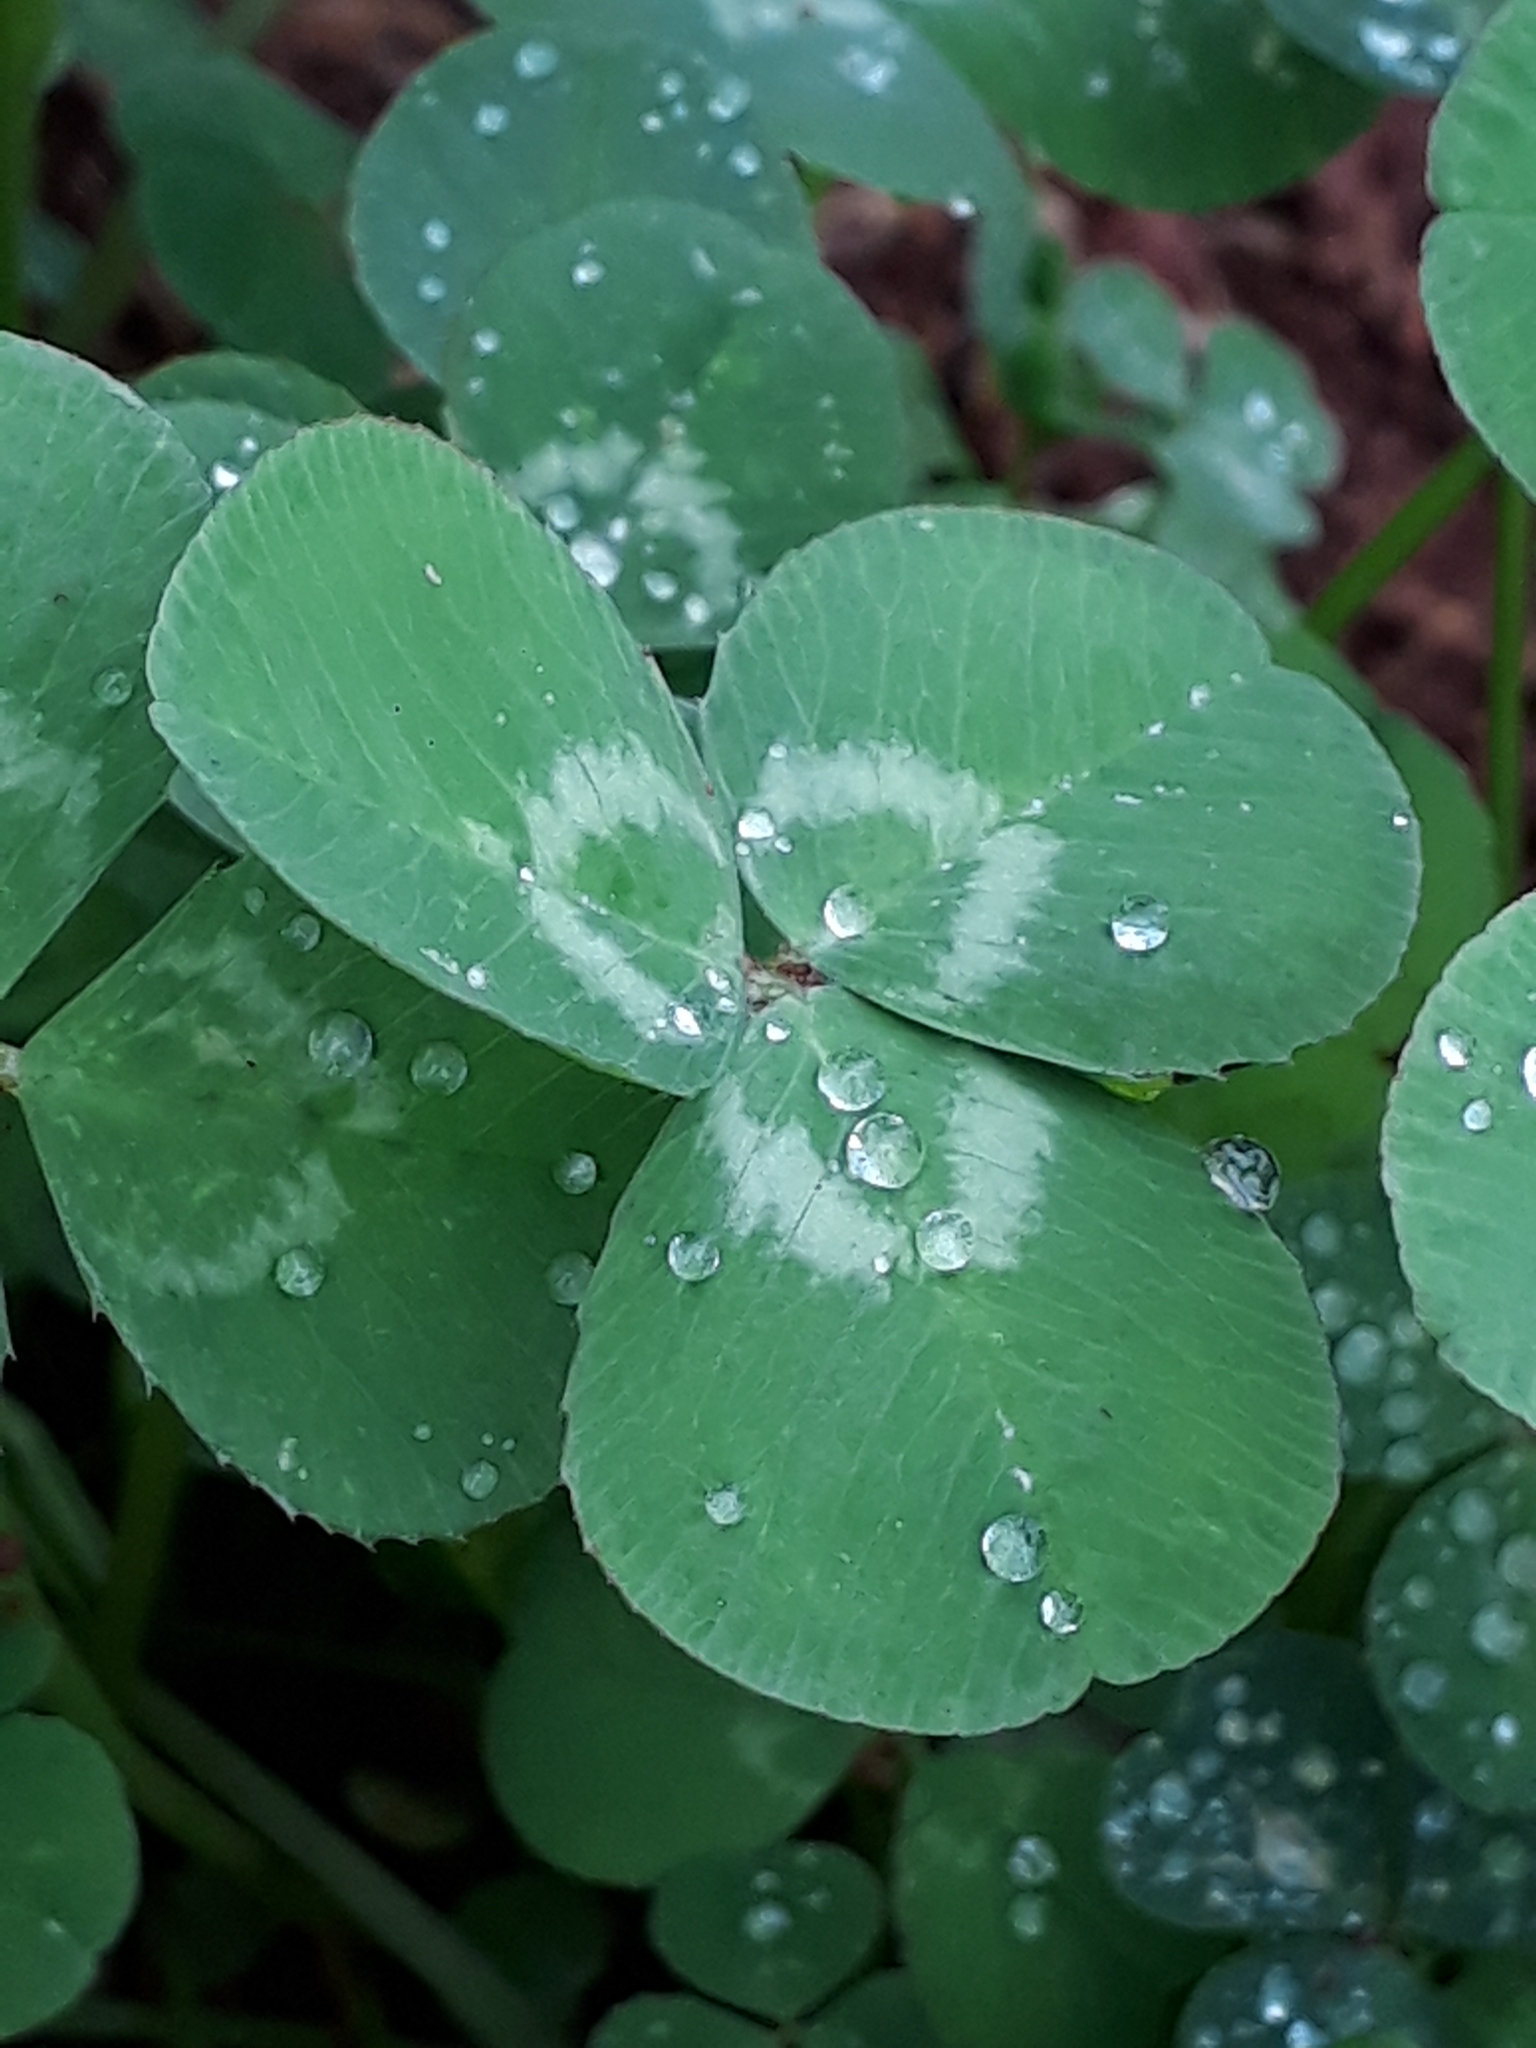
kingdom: Plantae
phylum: Tracheophyta
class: Magnoliopsida
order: Fabales
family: Fabaceae
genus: Trifolium
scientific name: Trifolium repens
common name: White clover
